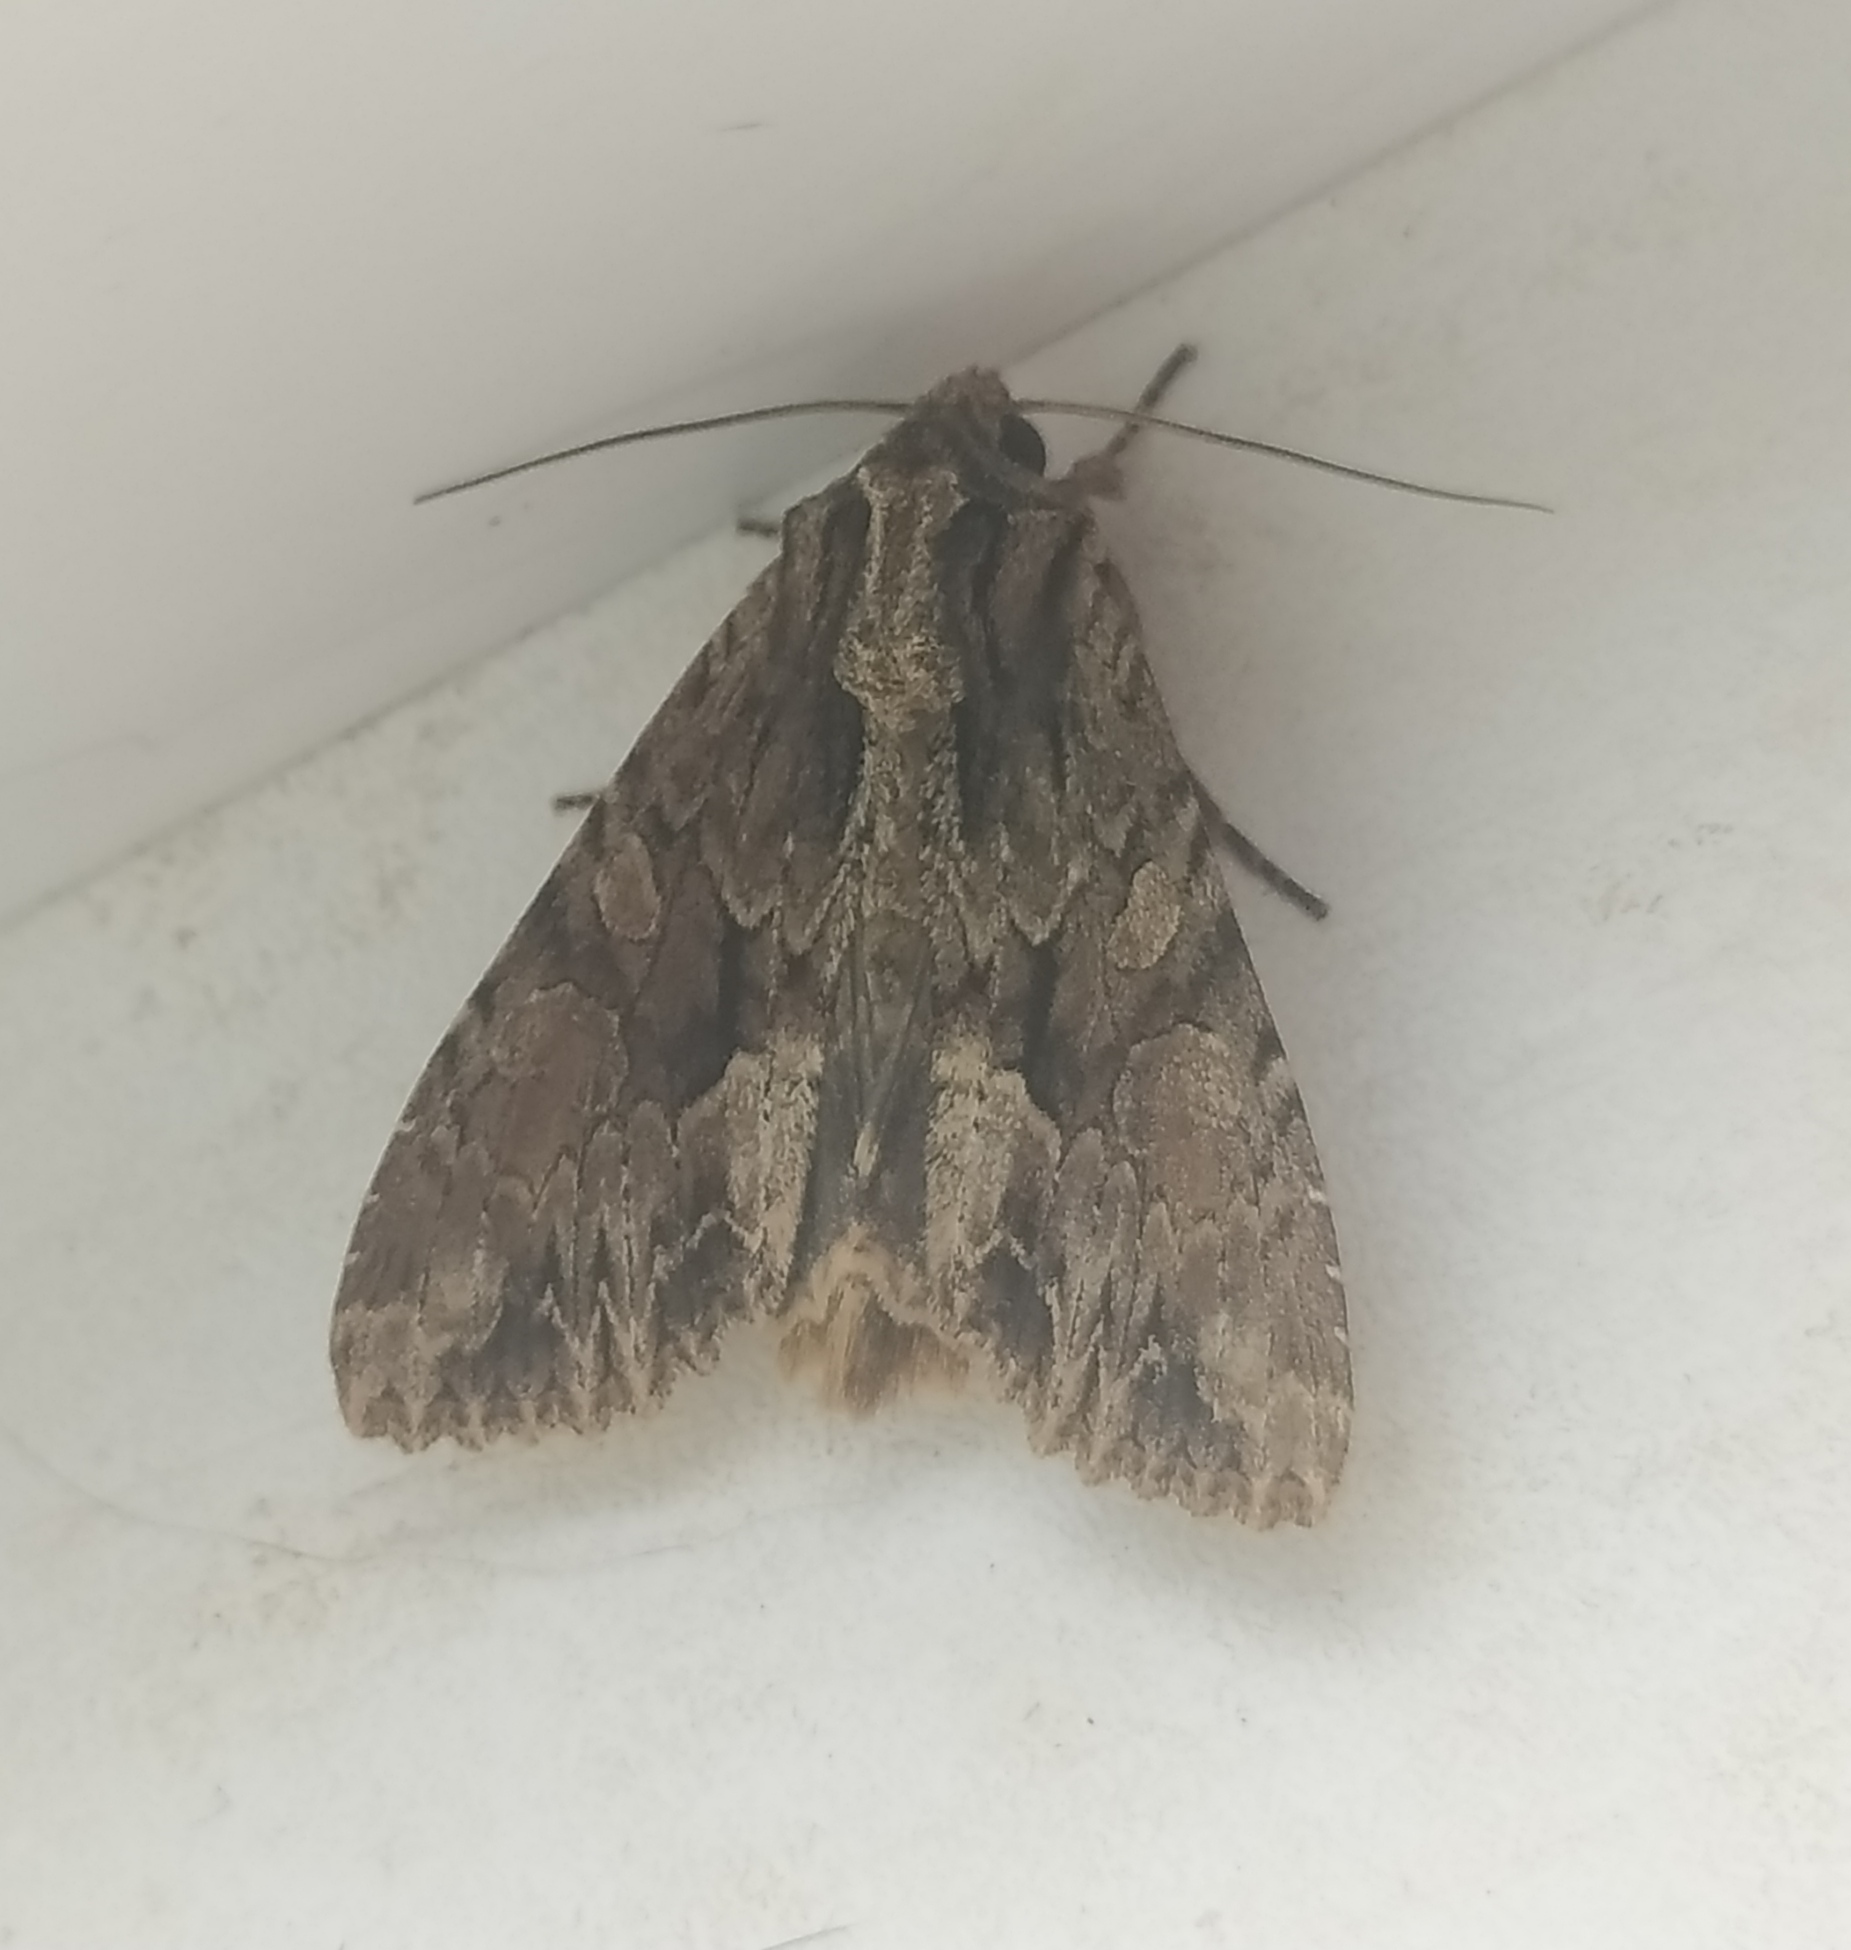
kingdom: Animalia
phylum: Arthropoda
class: Insecta
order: Lepidoptera
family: Noctuidae
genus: Apamea
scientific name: Apamea monoglypha
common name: Dark arches
